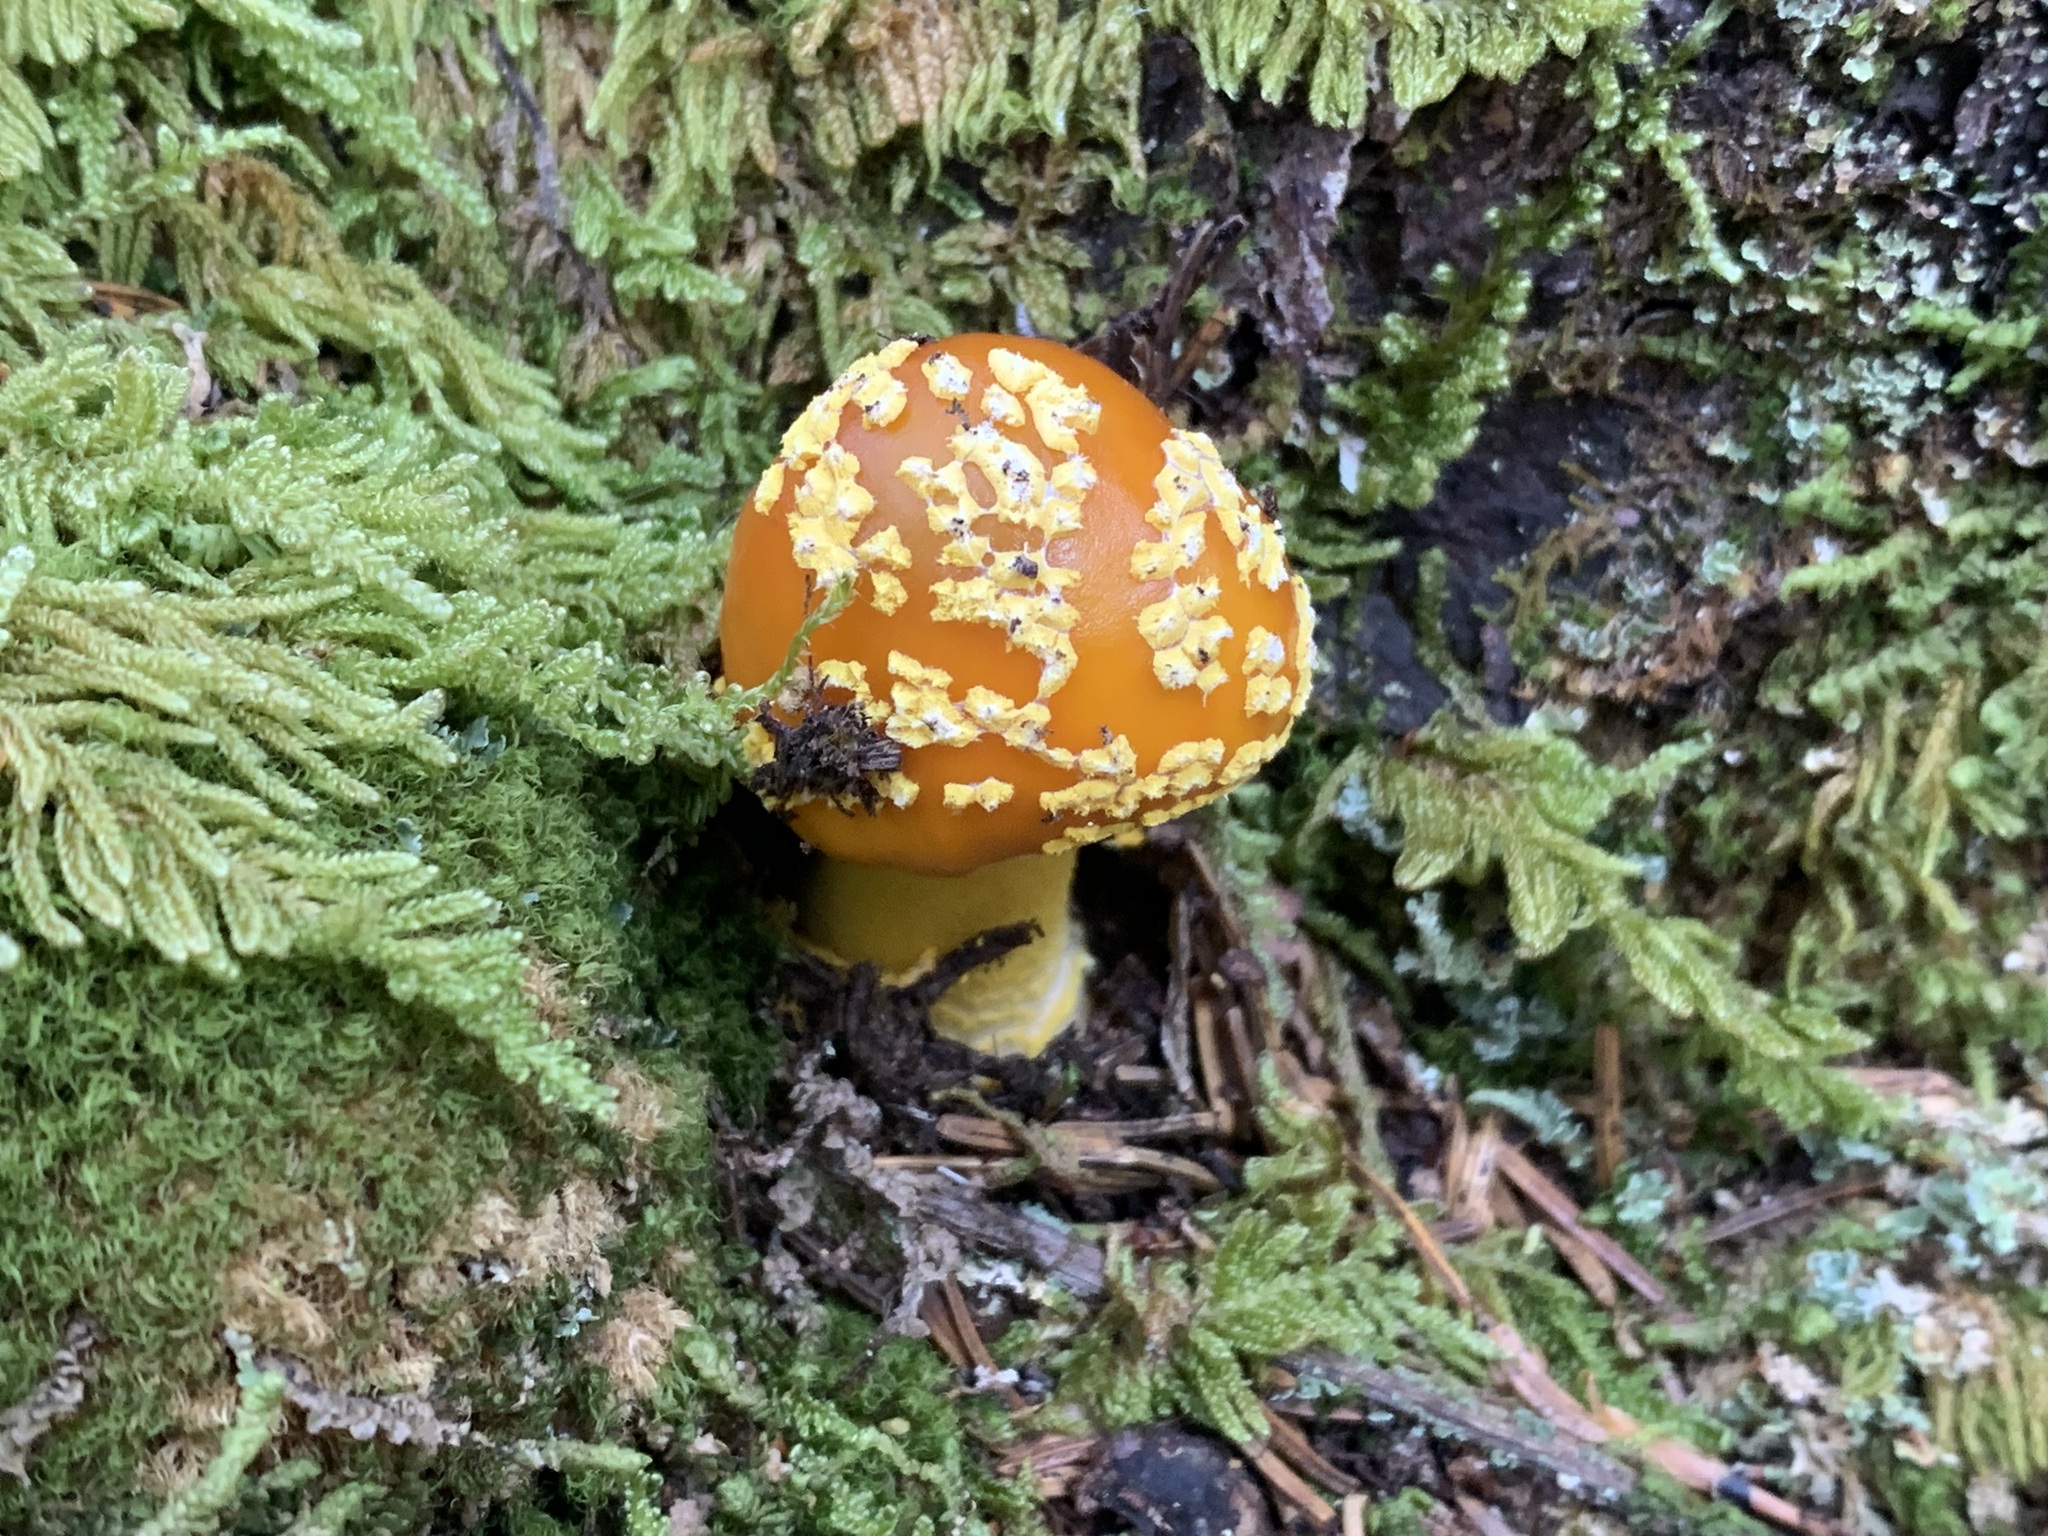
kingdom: Fungi
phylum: Basidiomycota
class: Agaricomycetes
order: Agaricales
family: Amanitaceae
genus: Amanita
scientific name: Amanita flavoconia
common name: Yellow patches
